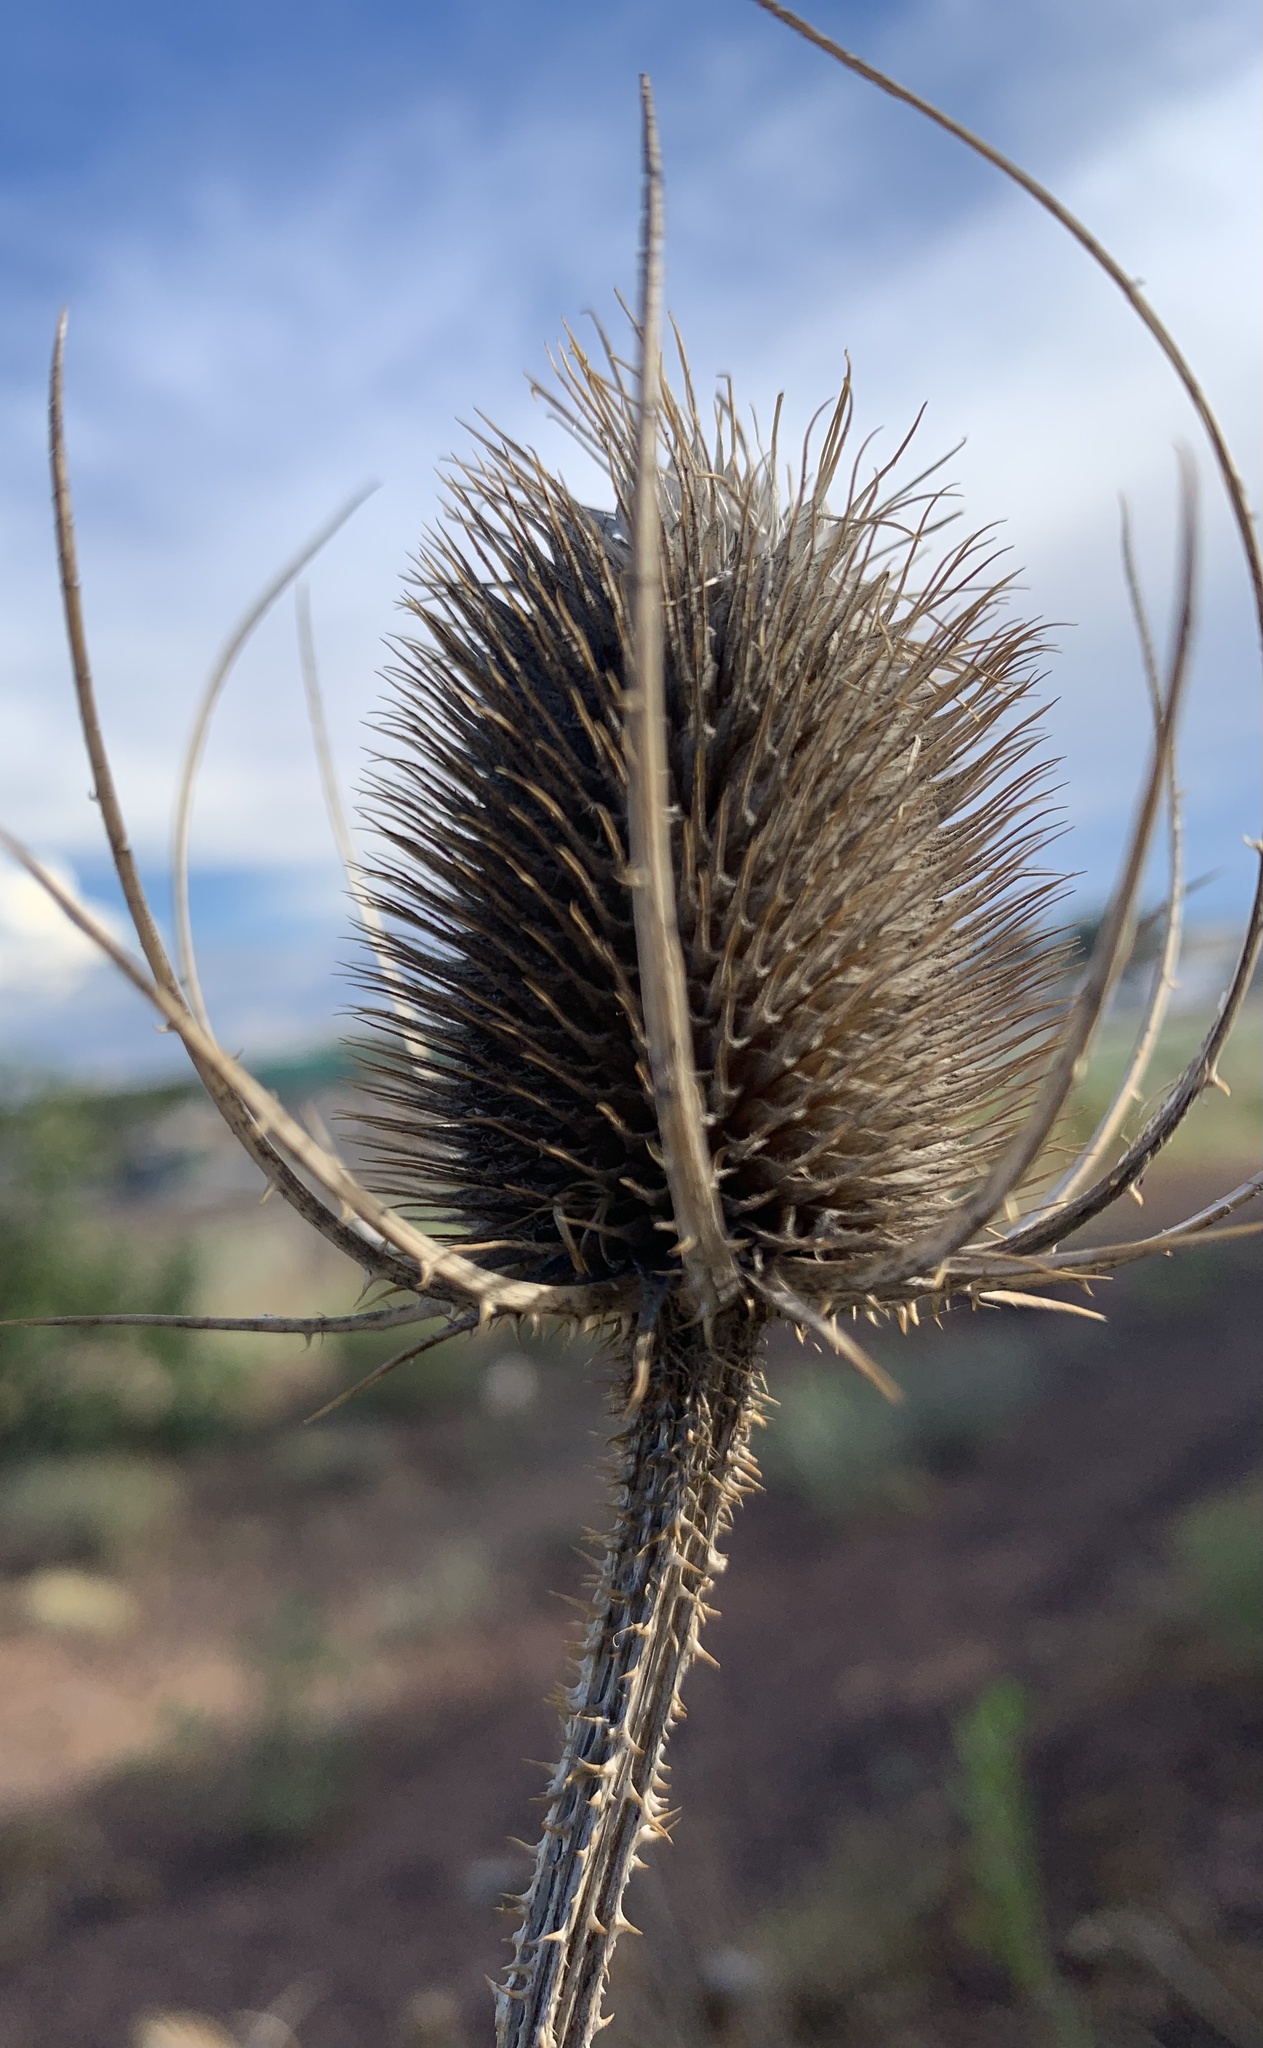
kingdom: Plantae
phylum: Tracheophyta
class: Magnoliopsida
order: Dipsacales
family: Caprifoliaceae
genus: Dipsacus
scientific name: Dipsacus fullonum
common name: Teasel
